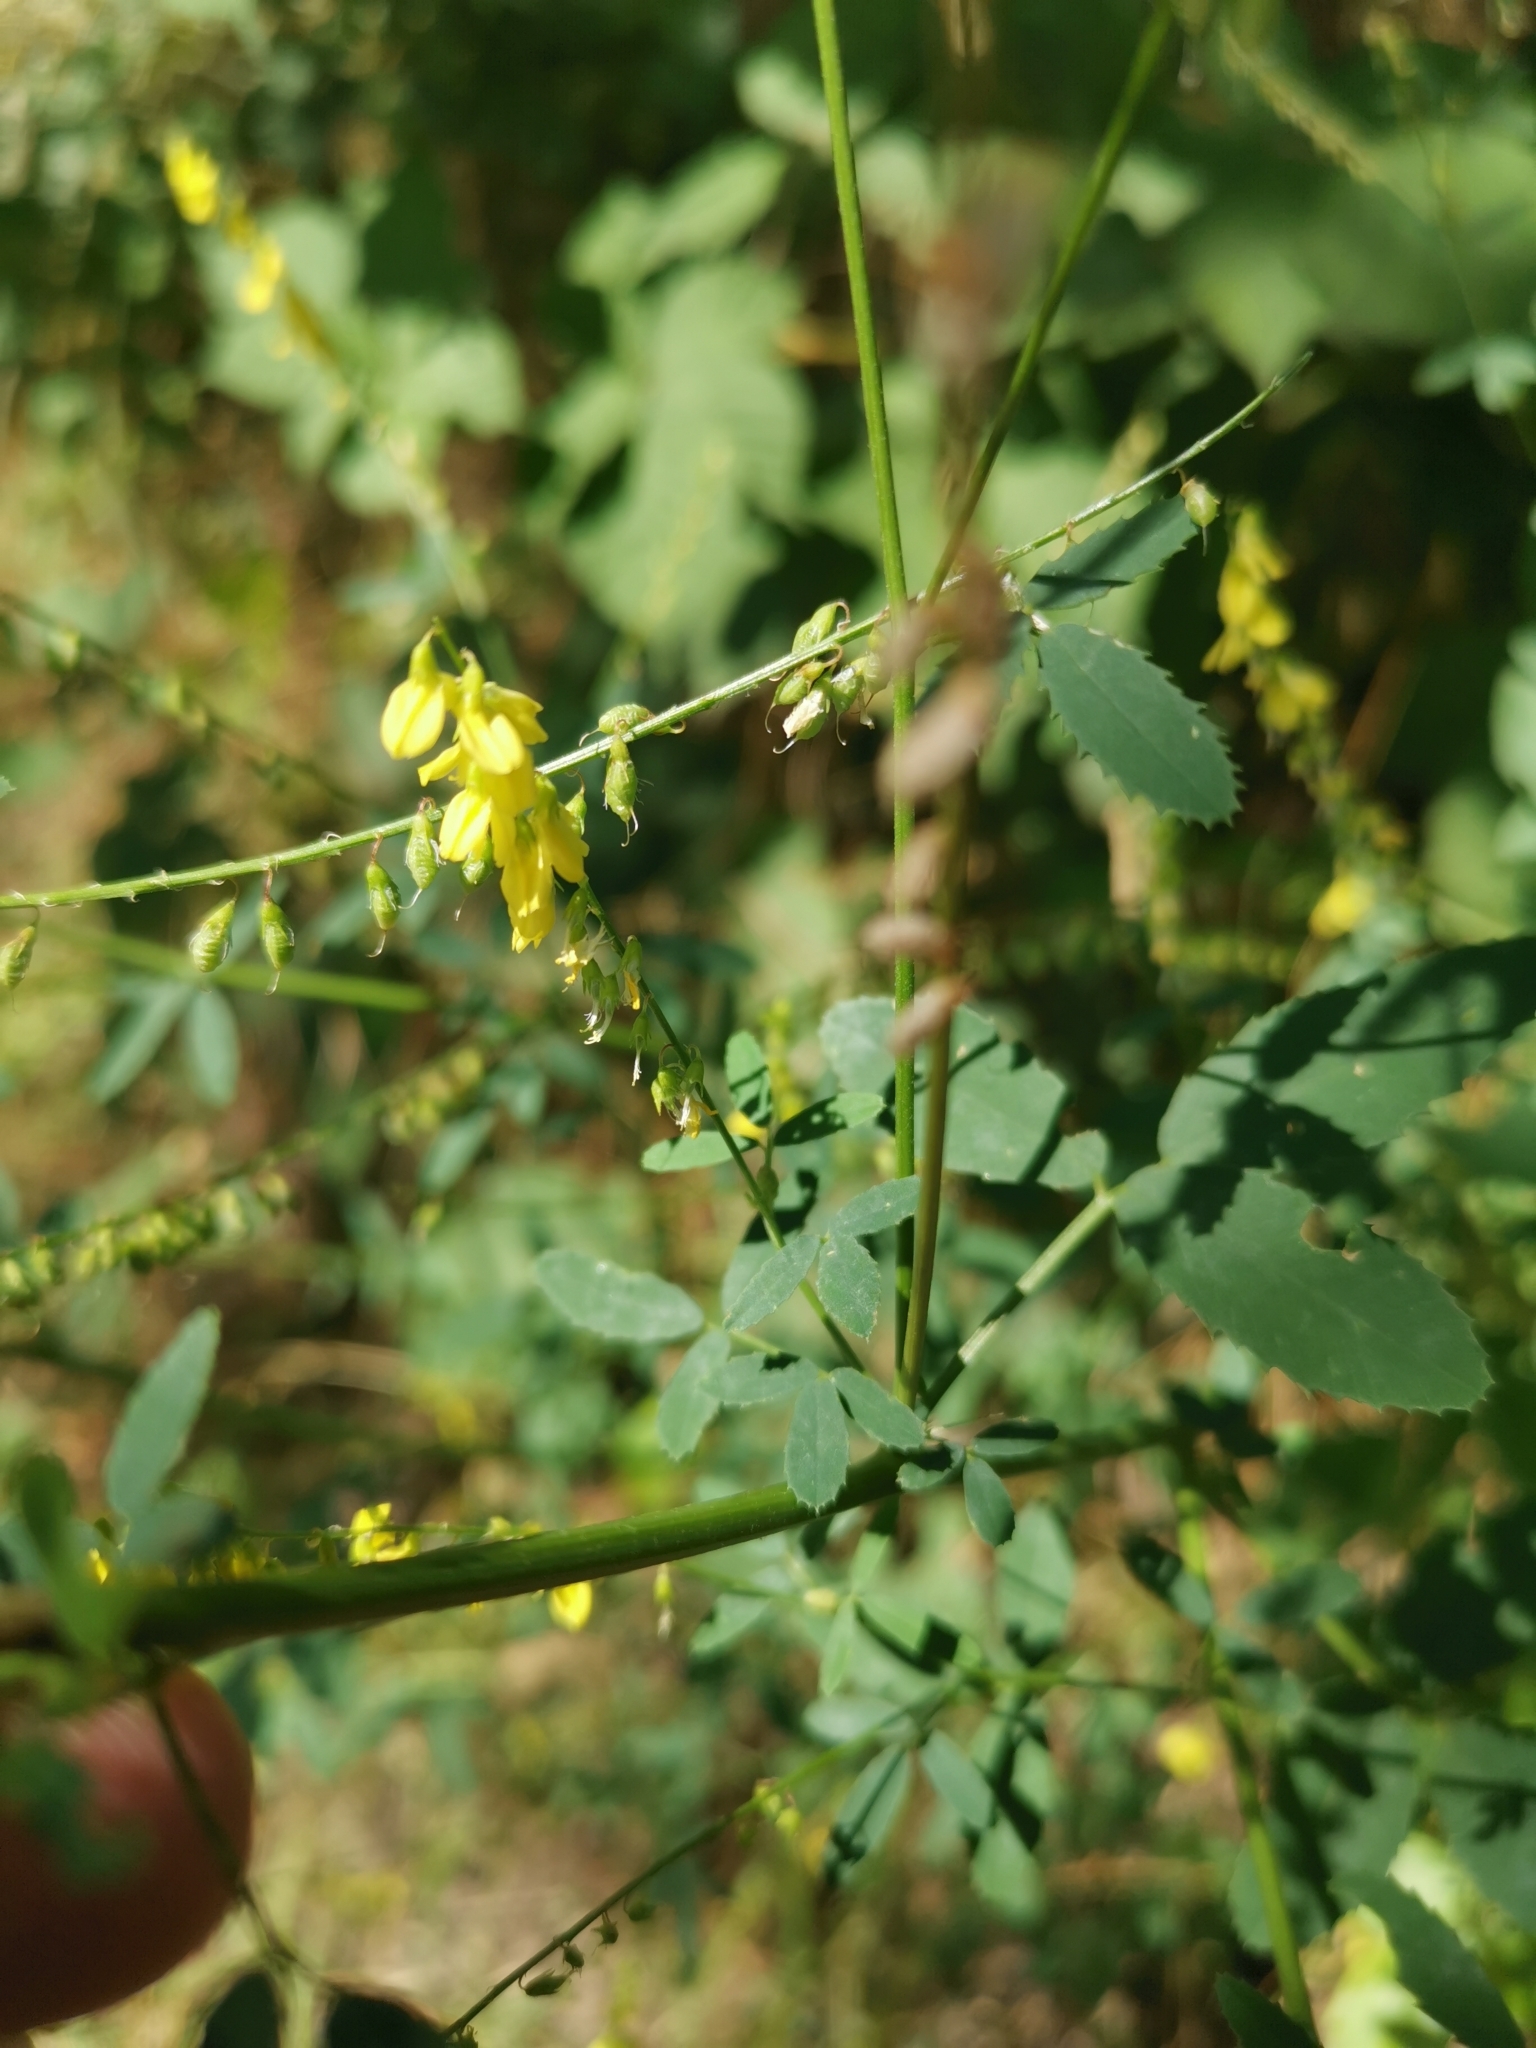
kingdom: Plantae
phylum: Tracheophyta
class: Magnoliopsida
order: Fabales
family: Fabaceae
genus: Melilotus
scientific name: Melilotus officinalis
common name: Sweetclover
